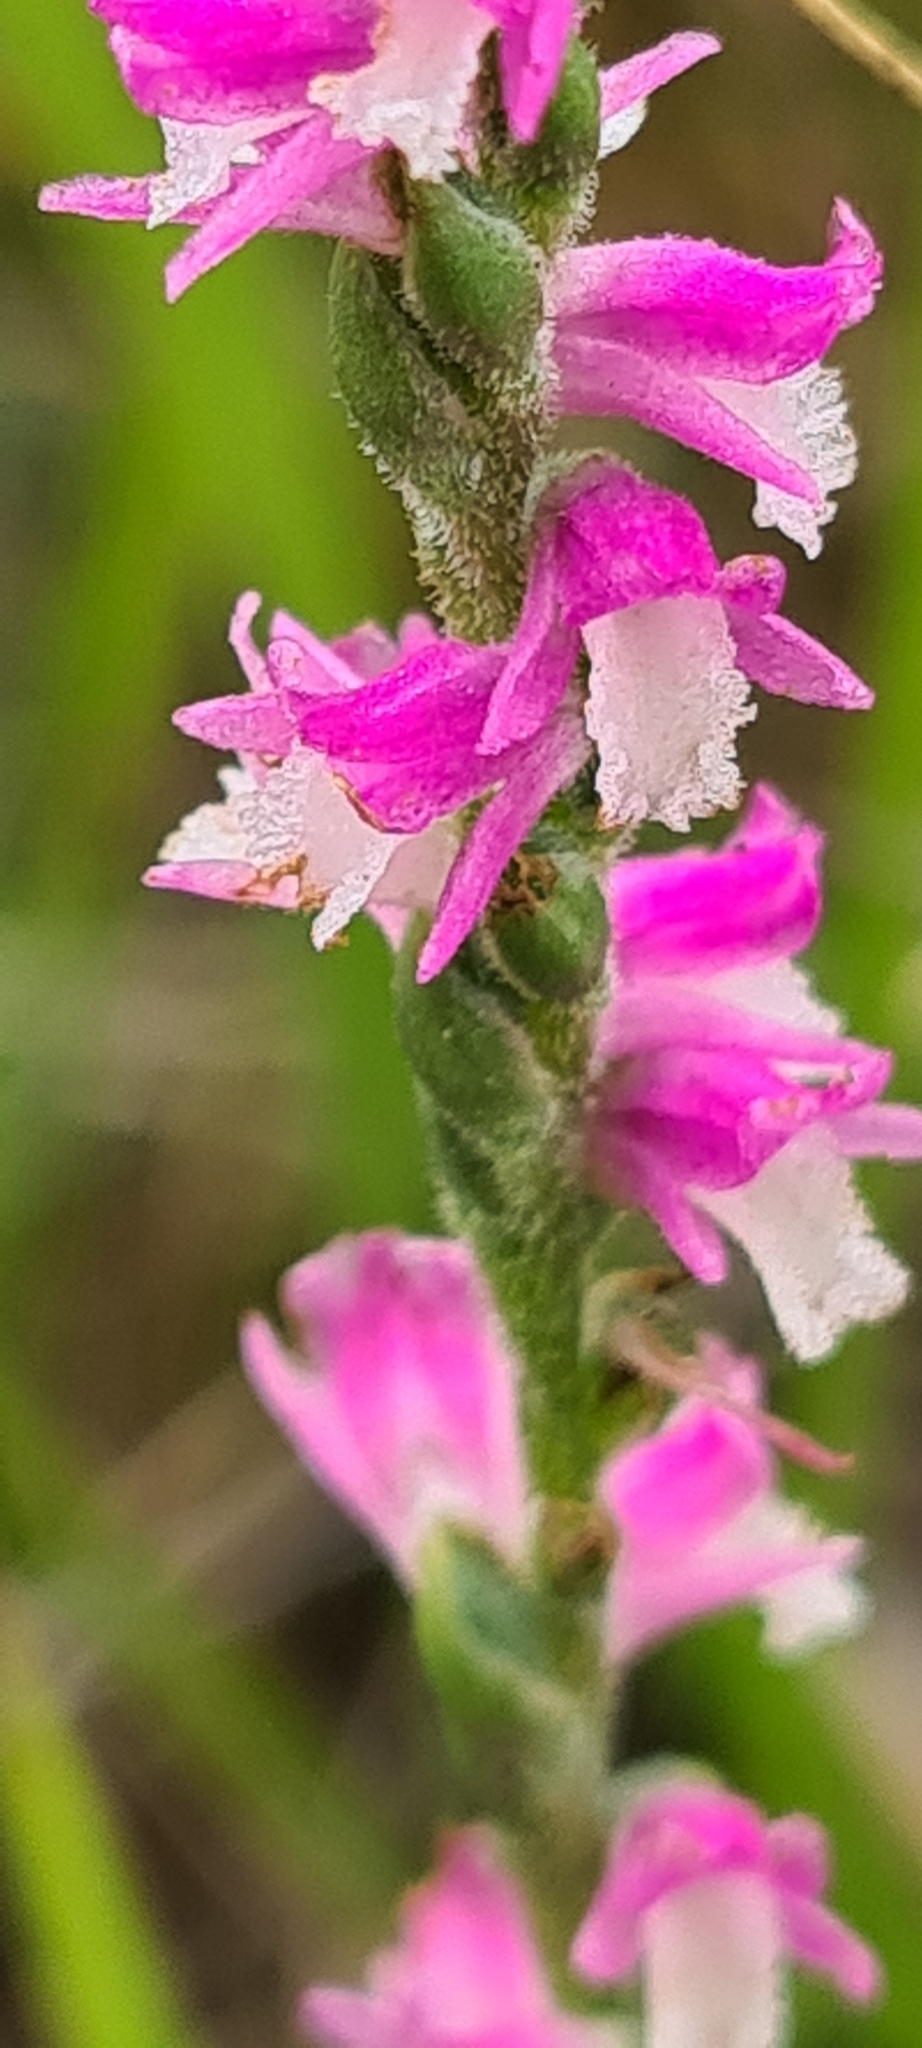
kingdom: Plantae
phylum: Tracheophyta
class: Liliopsida
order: Asparagales
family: Orchidaceae
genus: Spiranthes
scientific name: Spiranthes australis
